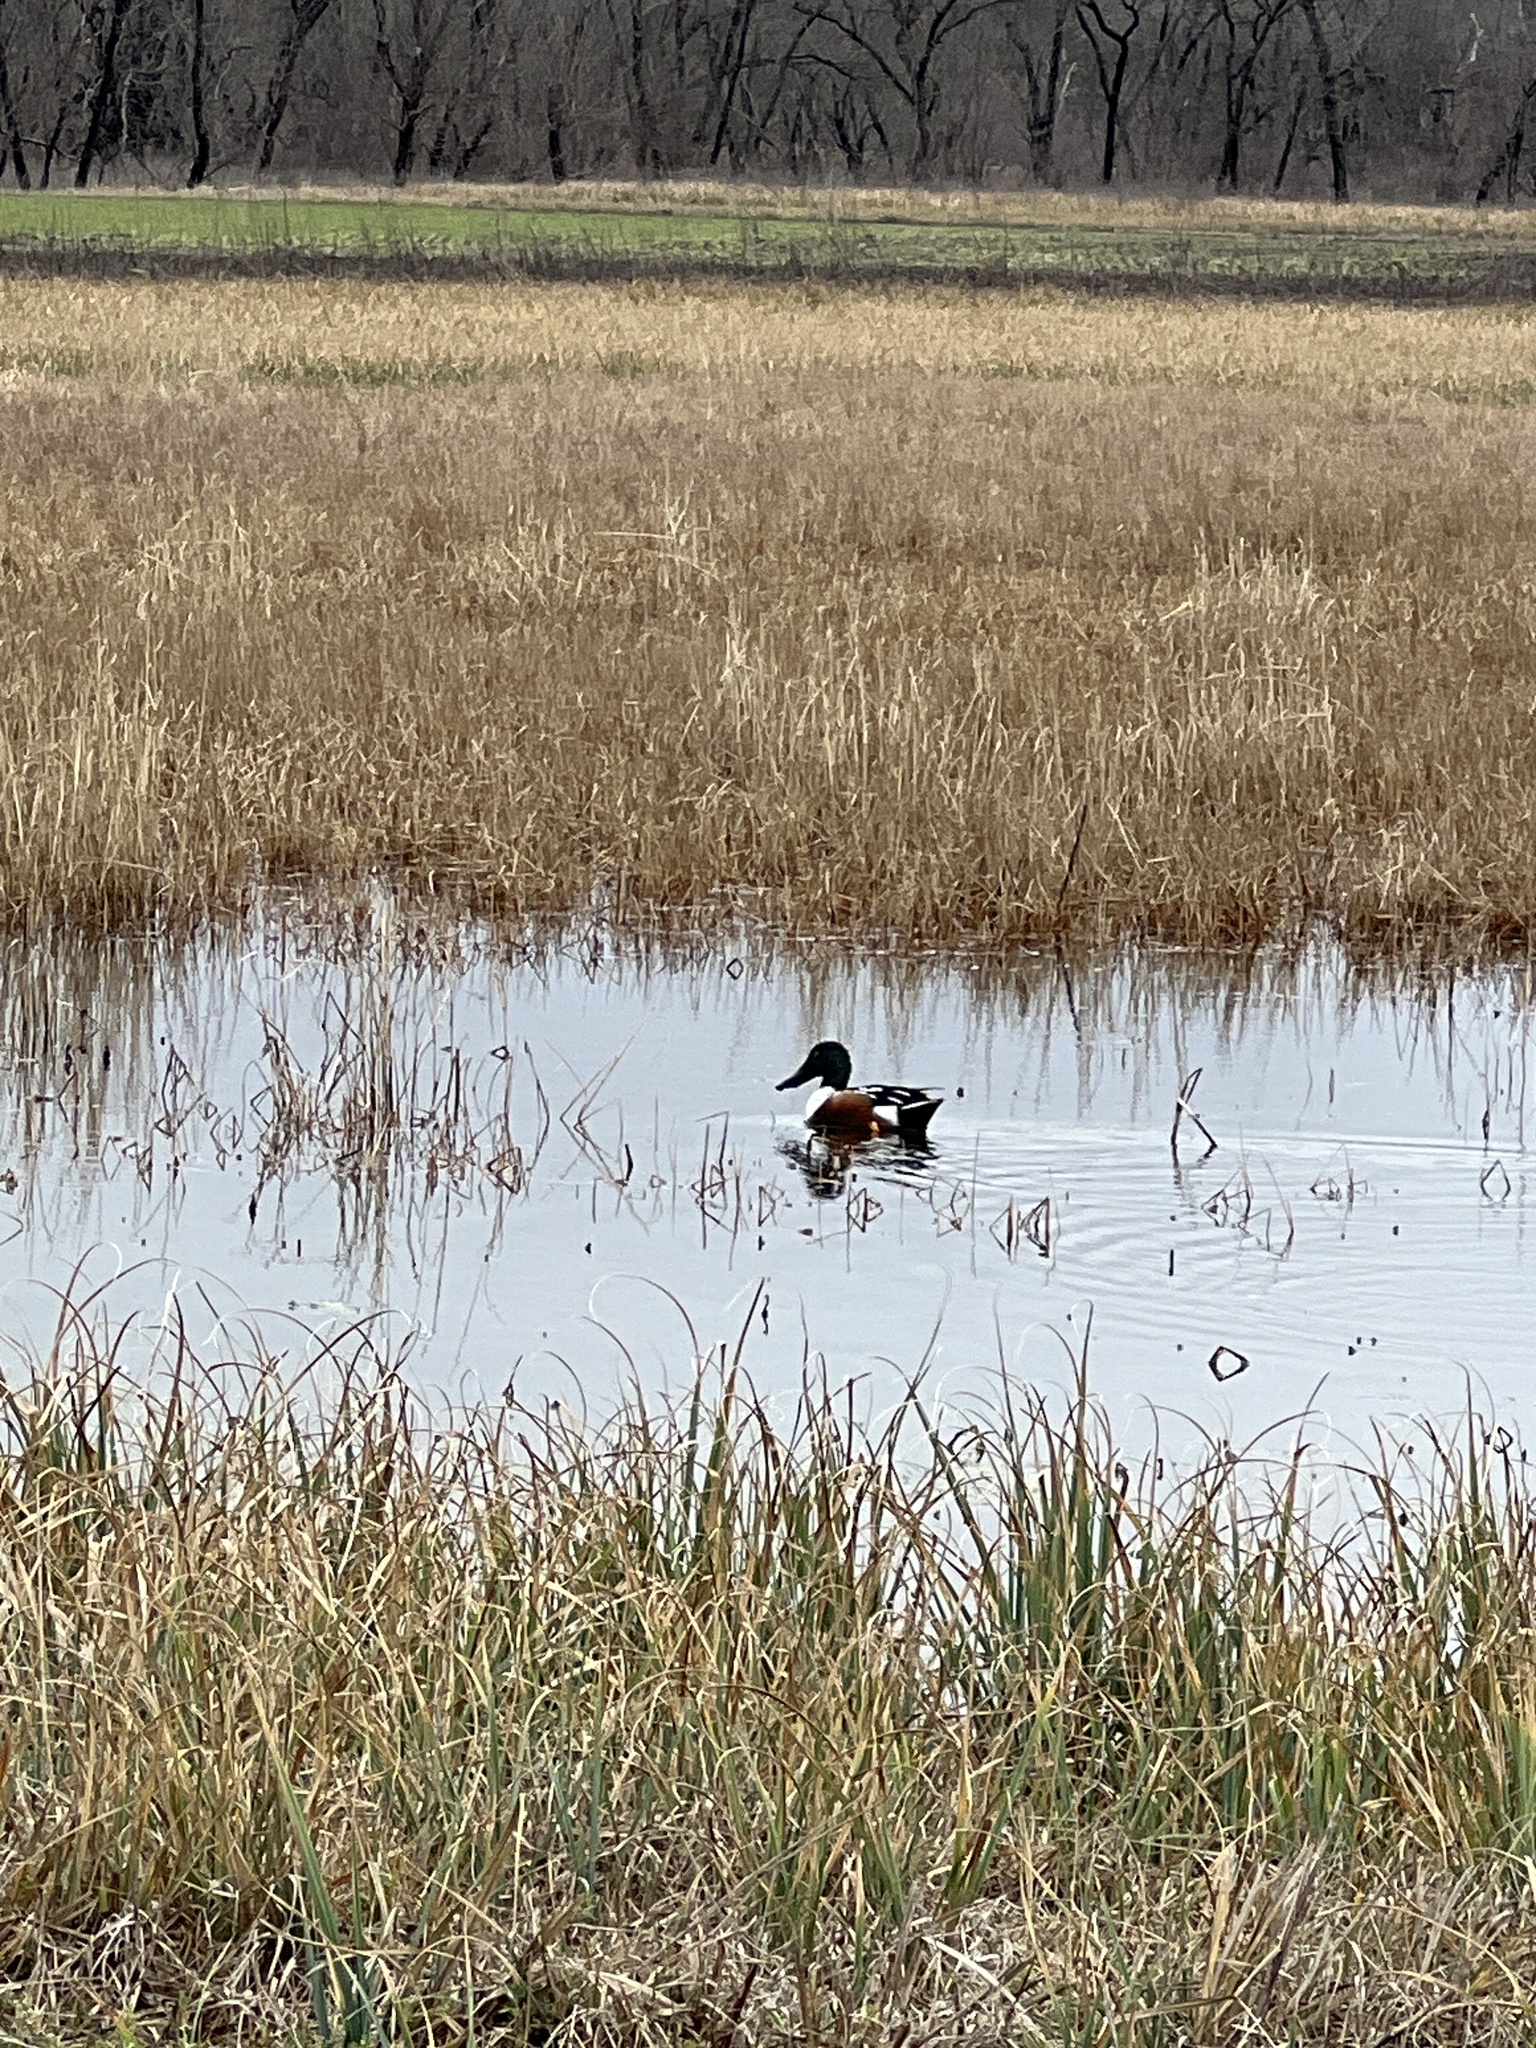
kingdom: Animalia
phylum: Chordata
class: Aves
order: Anseriformes
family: Anatidae
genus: Spatula
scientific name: Spatula clypeata
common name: Northern shoveler
